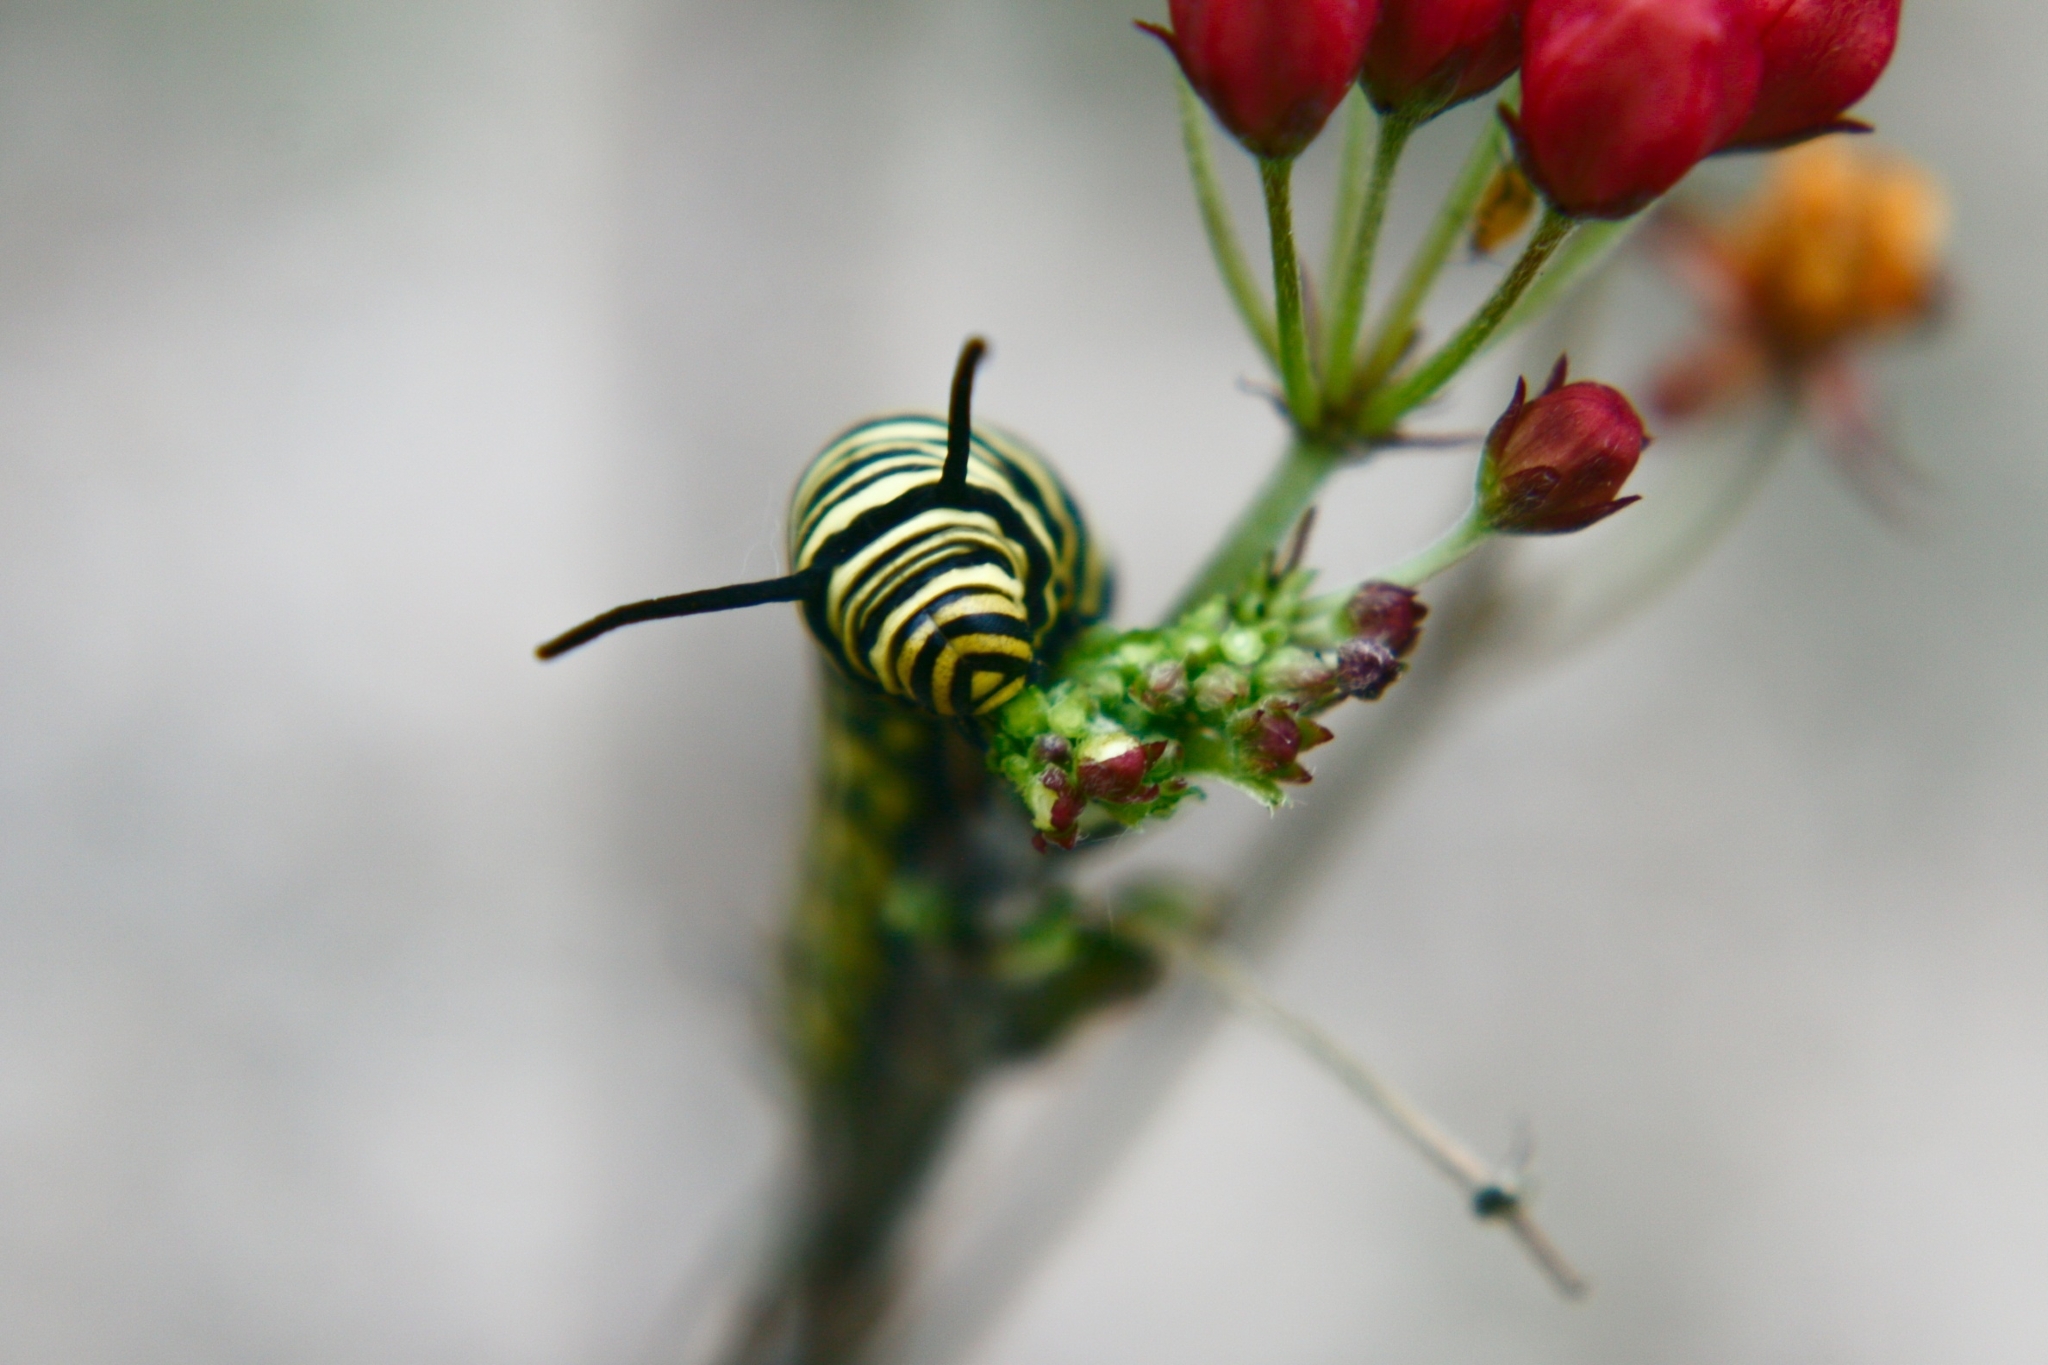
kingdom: Animalia
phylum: Arthropoda
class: Insecta
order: Lepidoptera
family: Nymphalidae
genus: Danaus
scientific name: Danaus erippus
